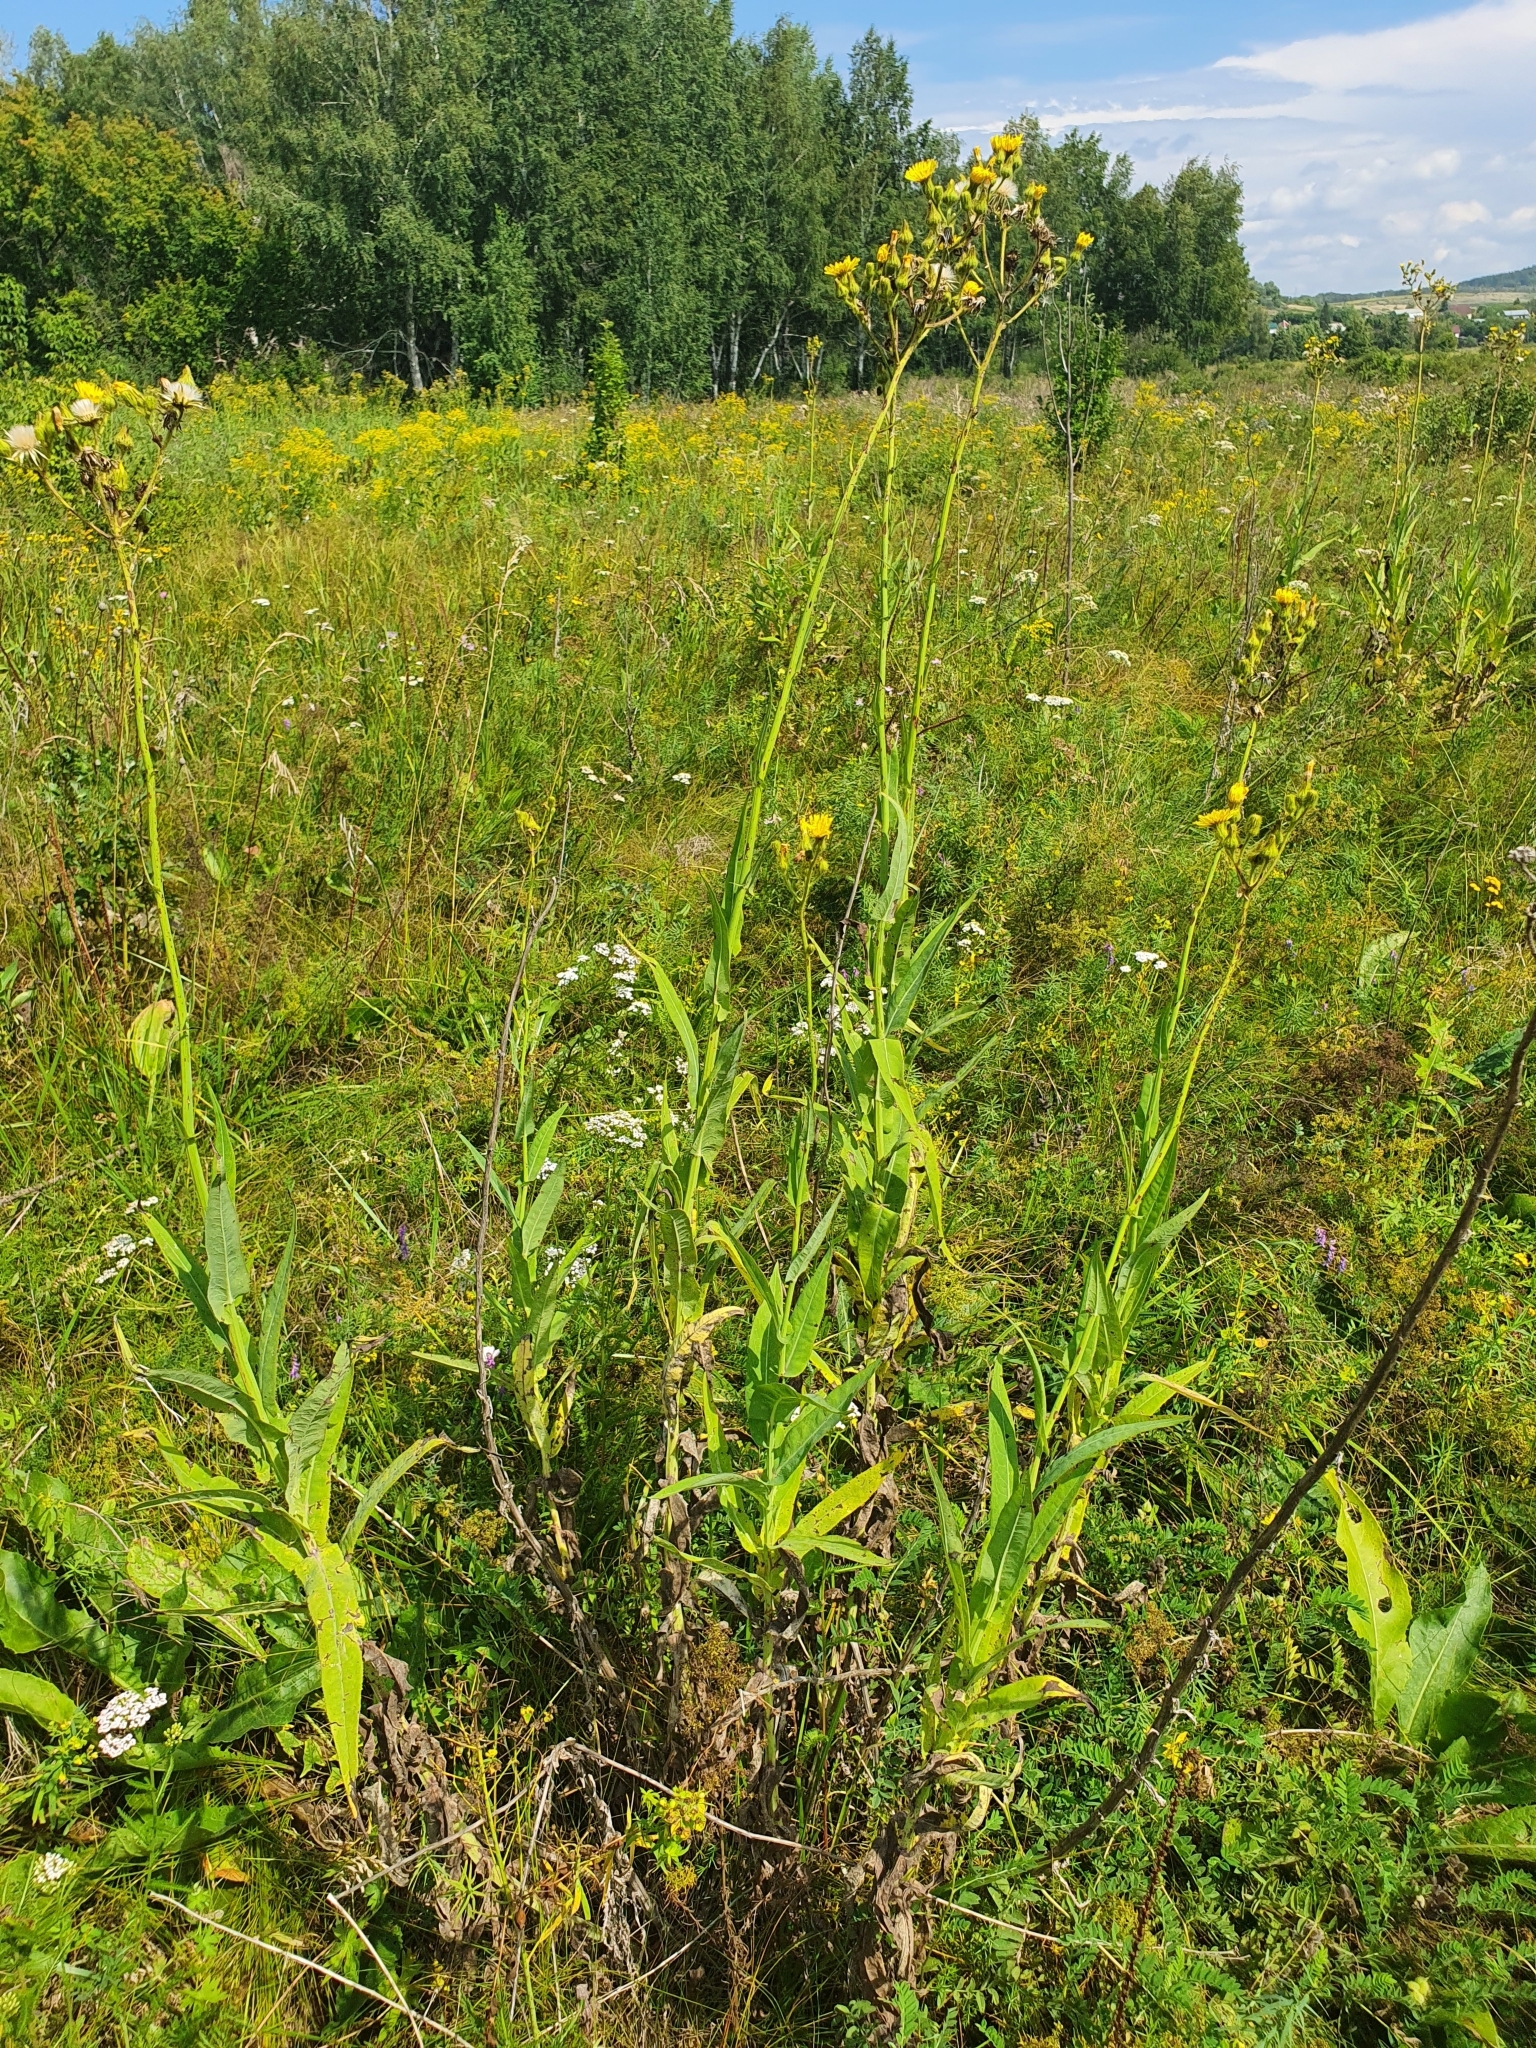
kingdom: Plantae
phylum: Tracheophyta
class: Magnoliopsida
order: Asterales
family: Asteraceae
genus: Sonchus
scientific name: Sonchus palustris
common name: Marsh sow-thistle
